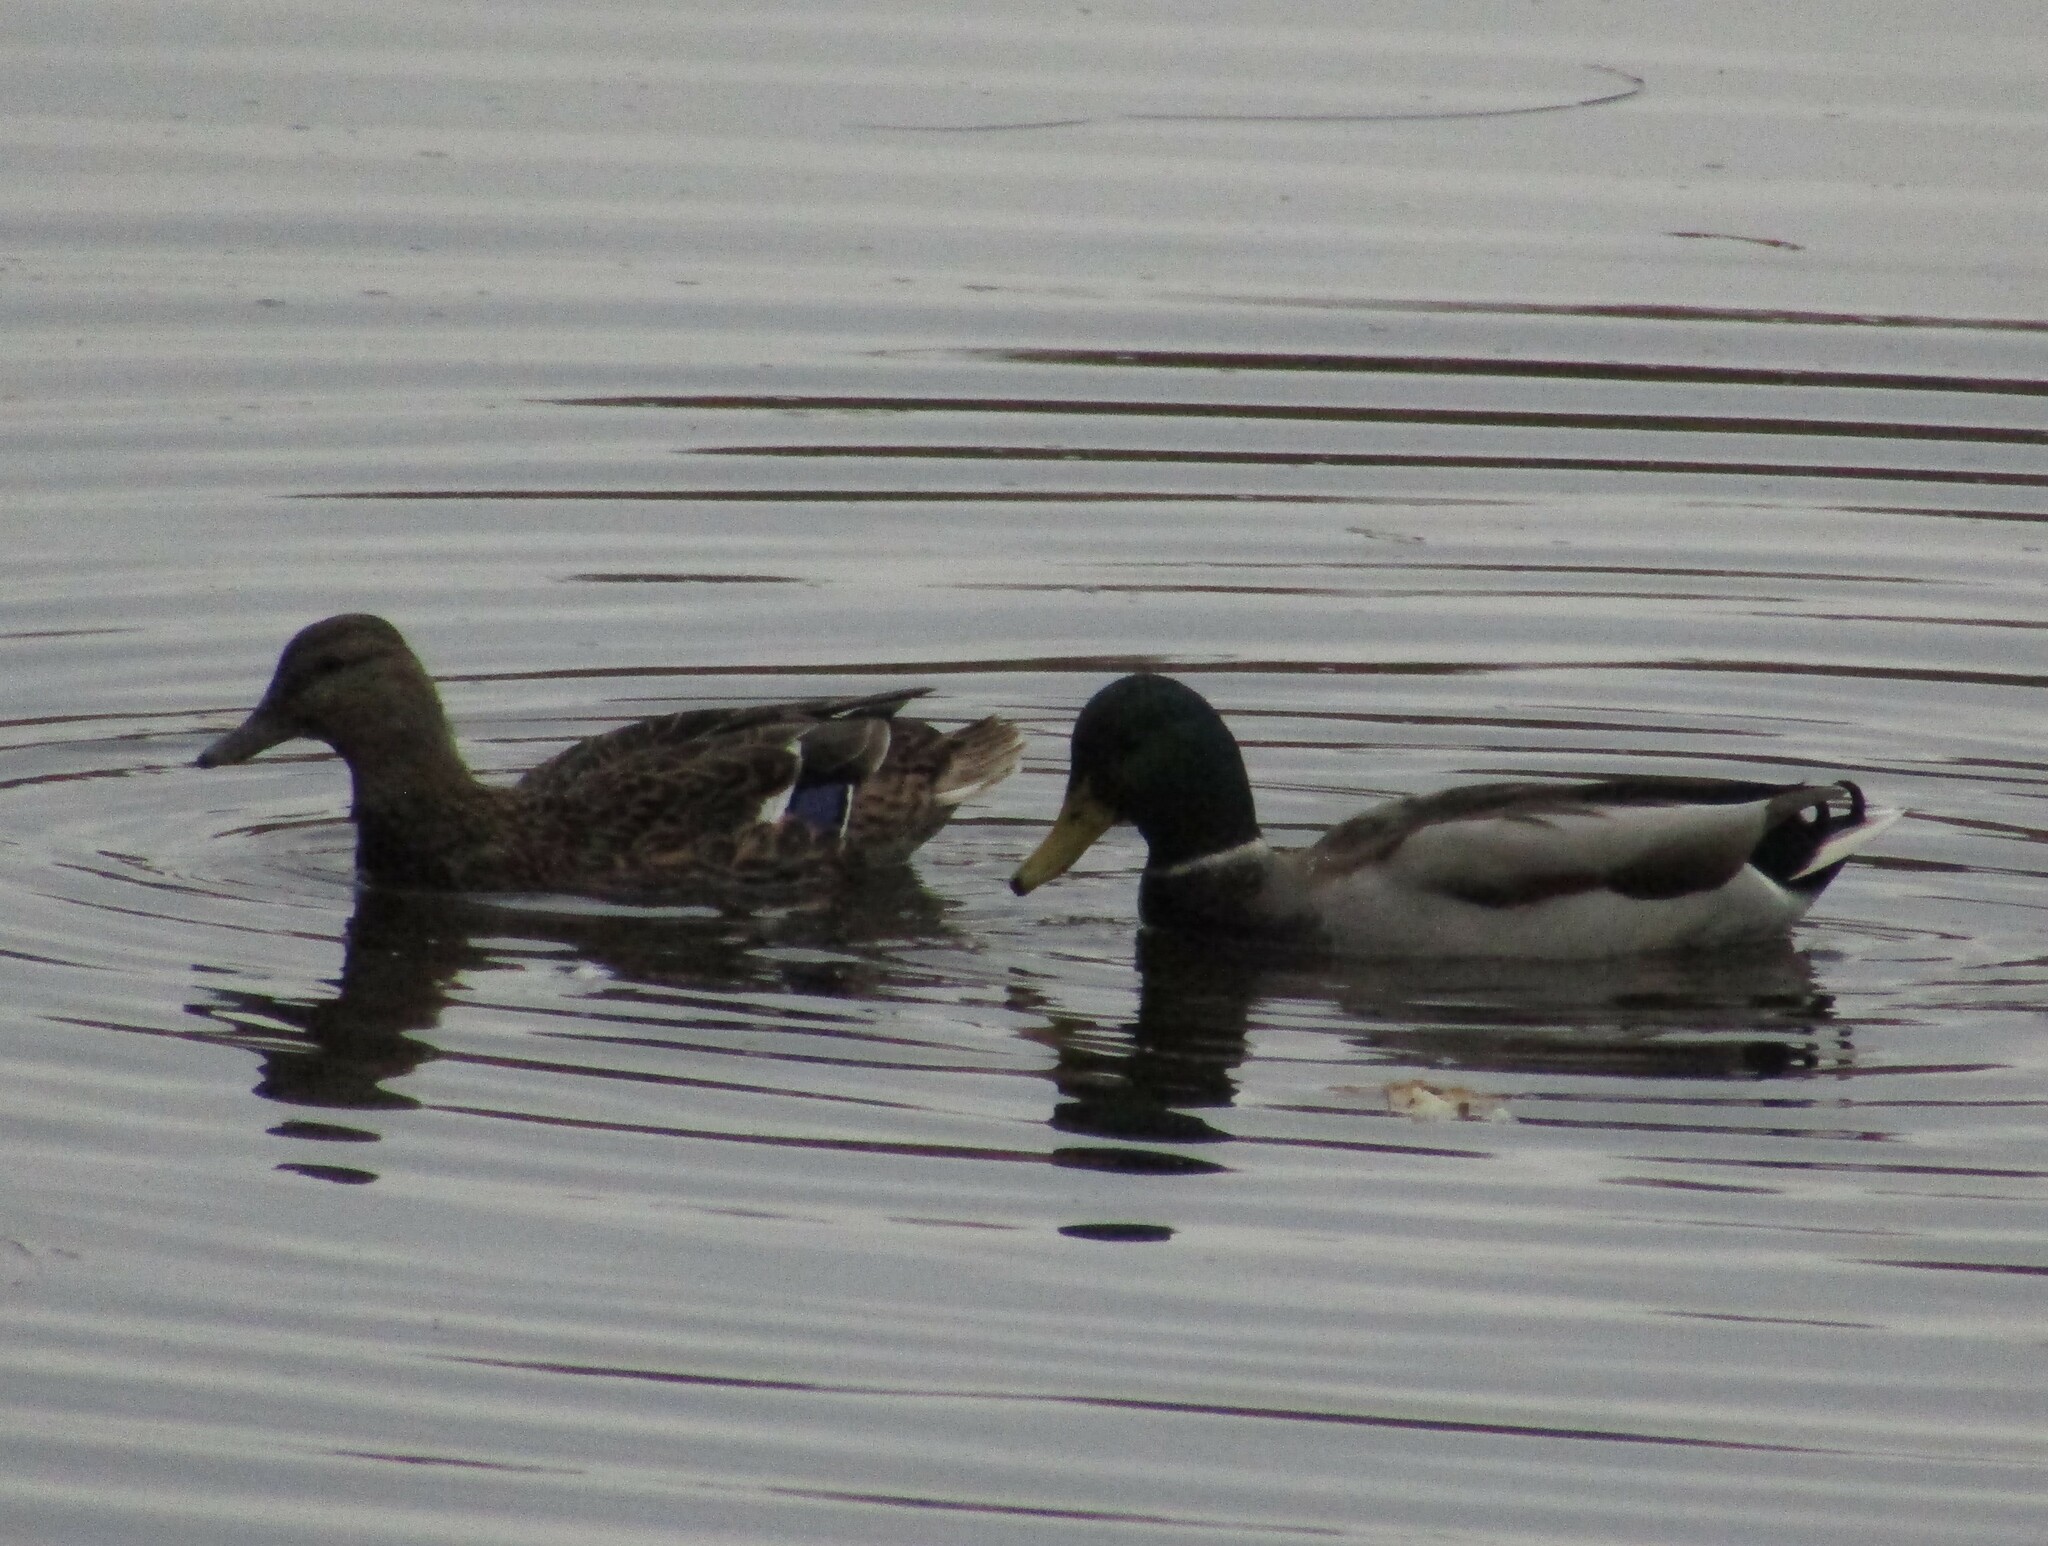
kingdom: Animalia
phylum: Chordata
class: Aves
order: Anseriformes
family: Anatidae
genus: Anas
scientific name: Anas platyrhynchos
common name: Mallard
